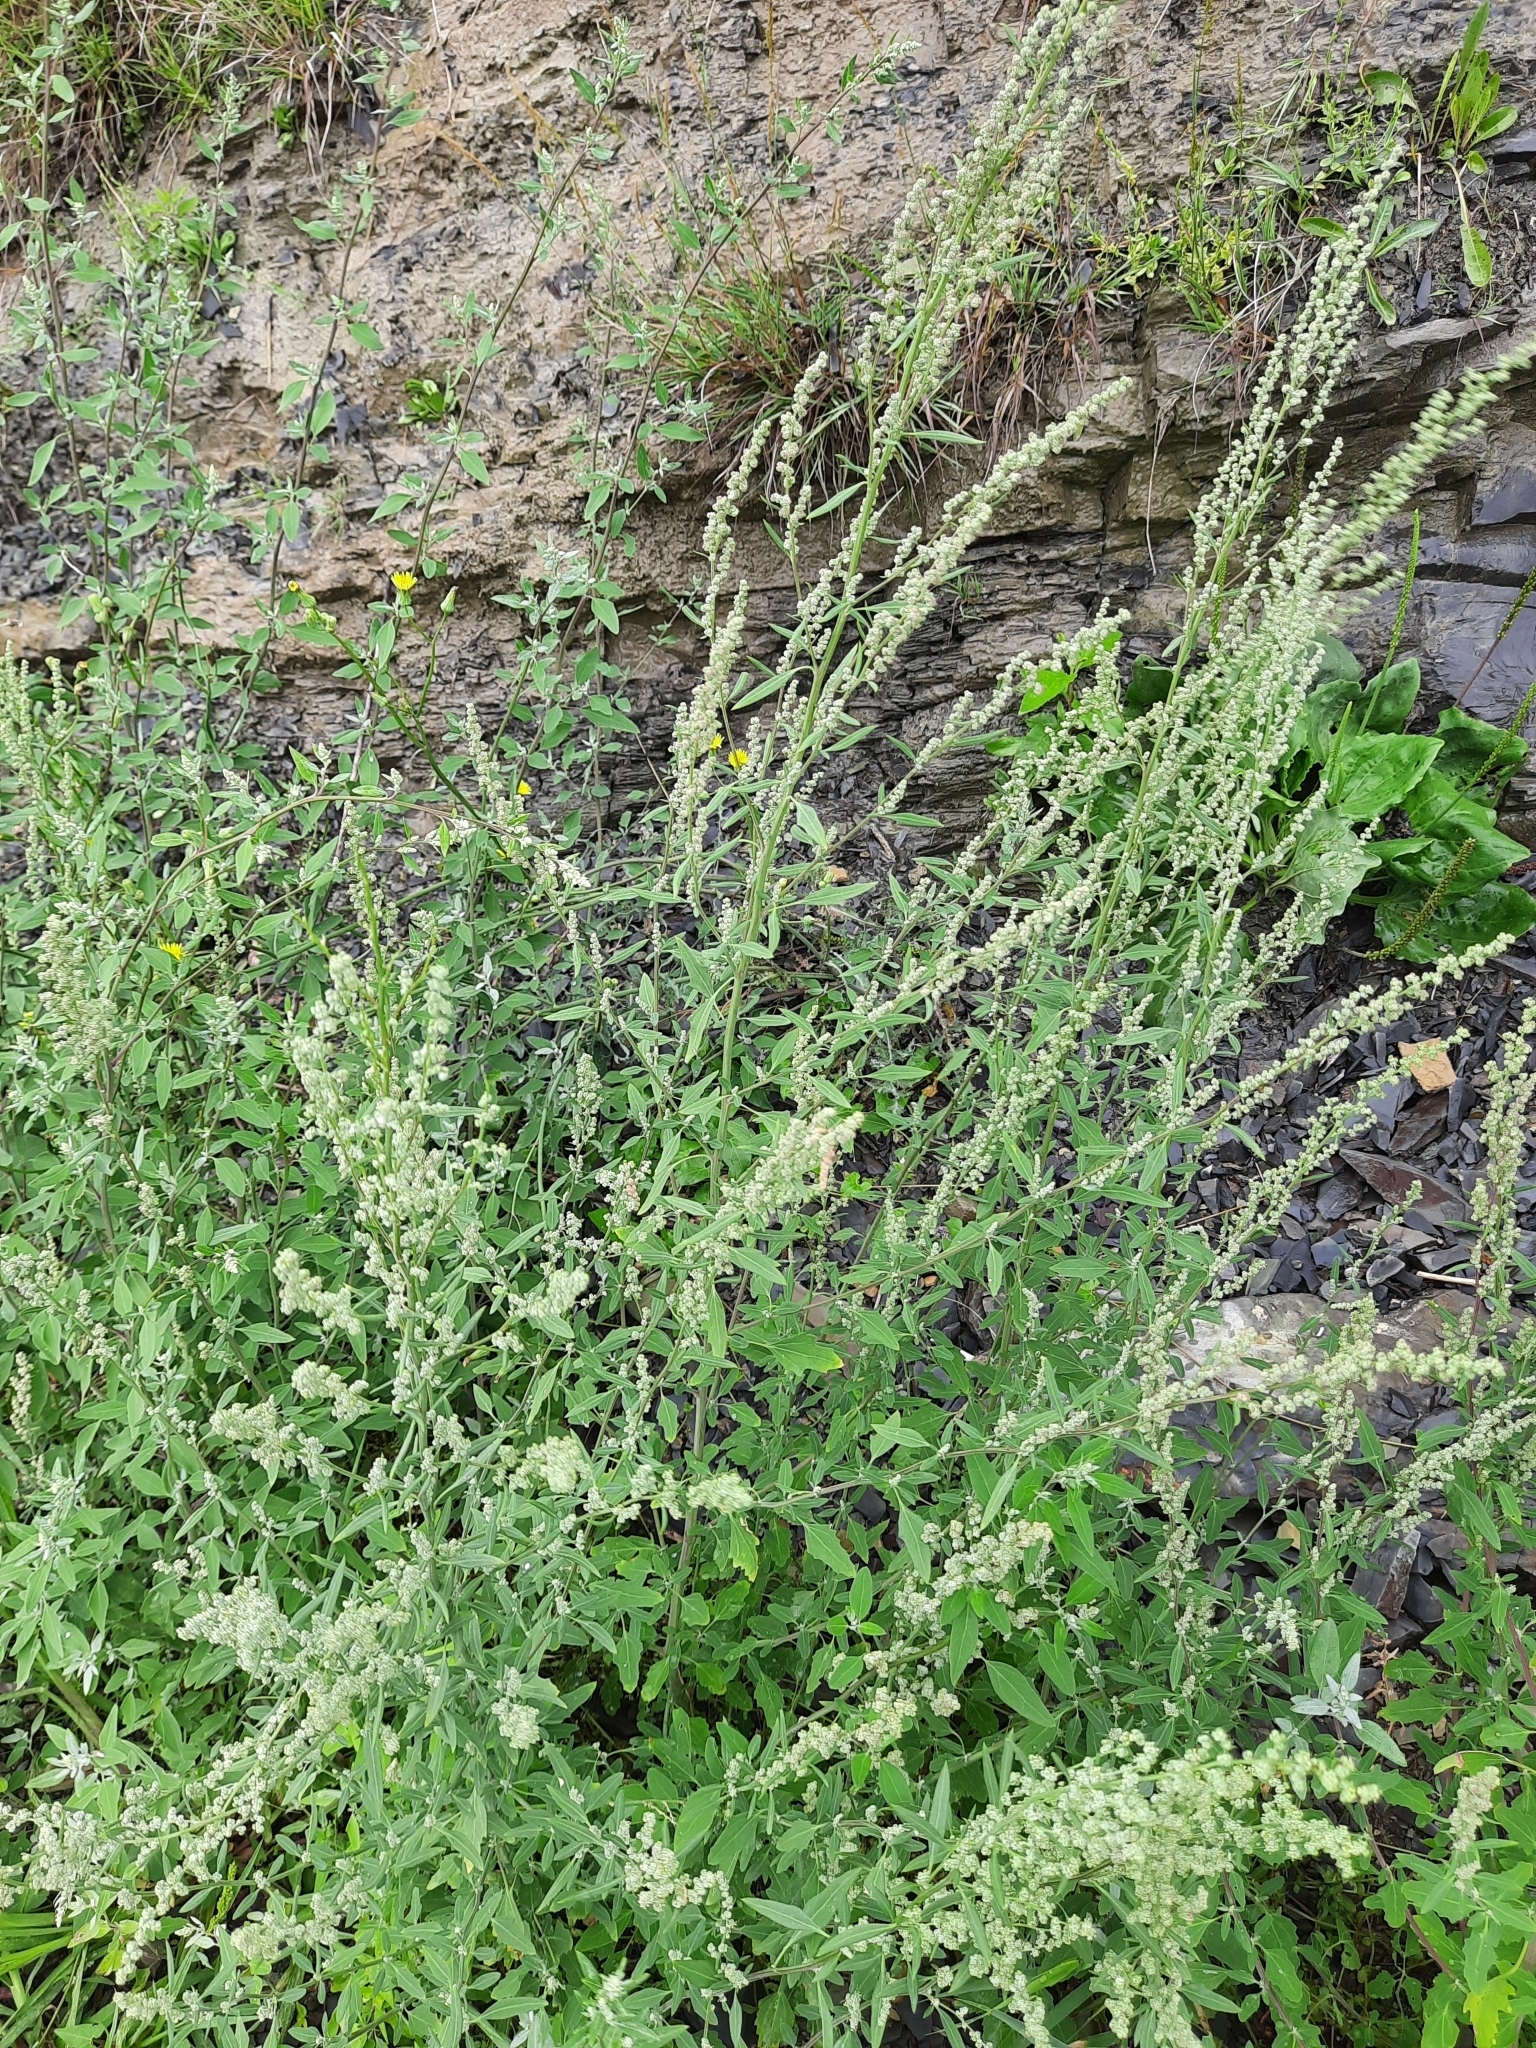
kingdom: Plantae
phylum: Tracheophyta
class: Magnoliopsida
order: Caryophyllales
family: Amaranthaceae
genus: Chenopodium
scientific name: Chenopodium album
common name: Fat-hen
